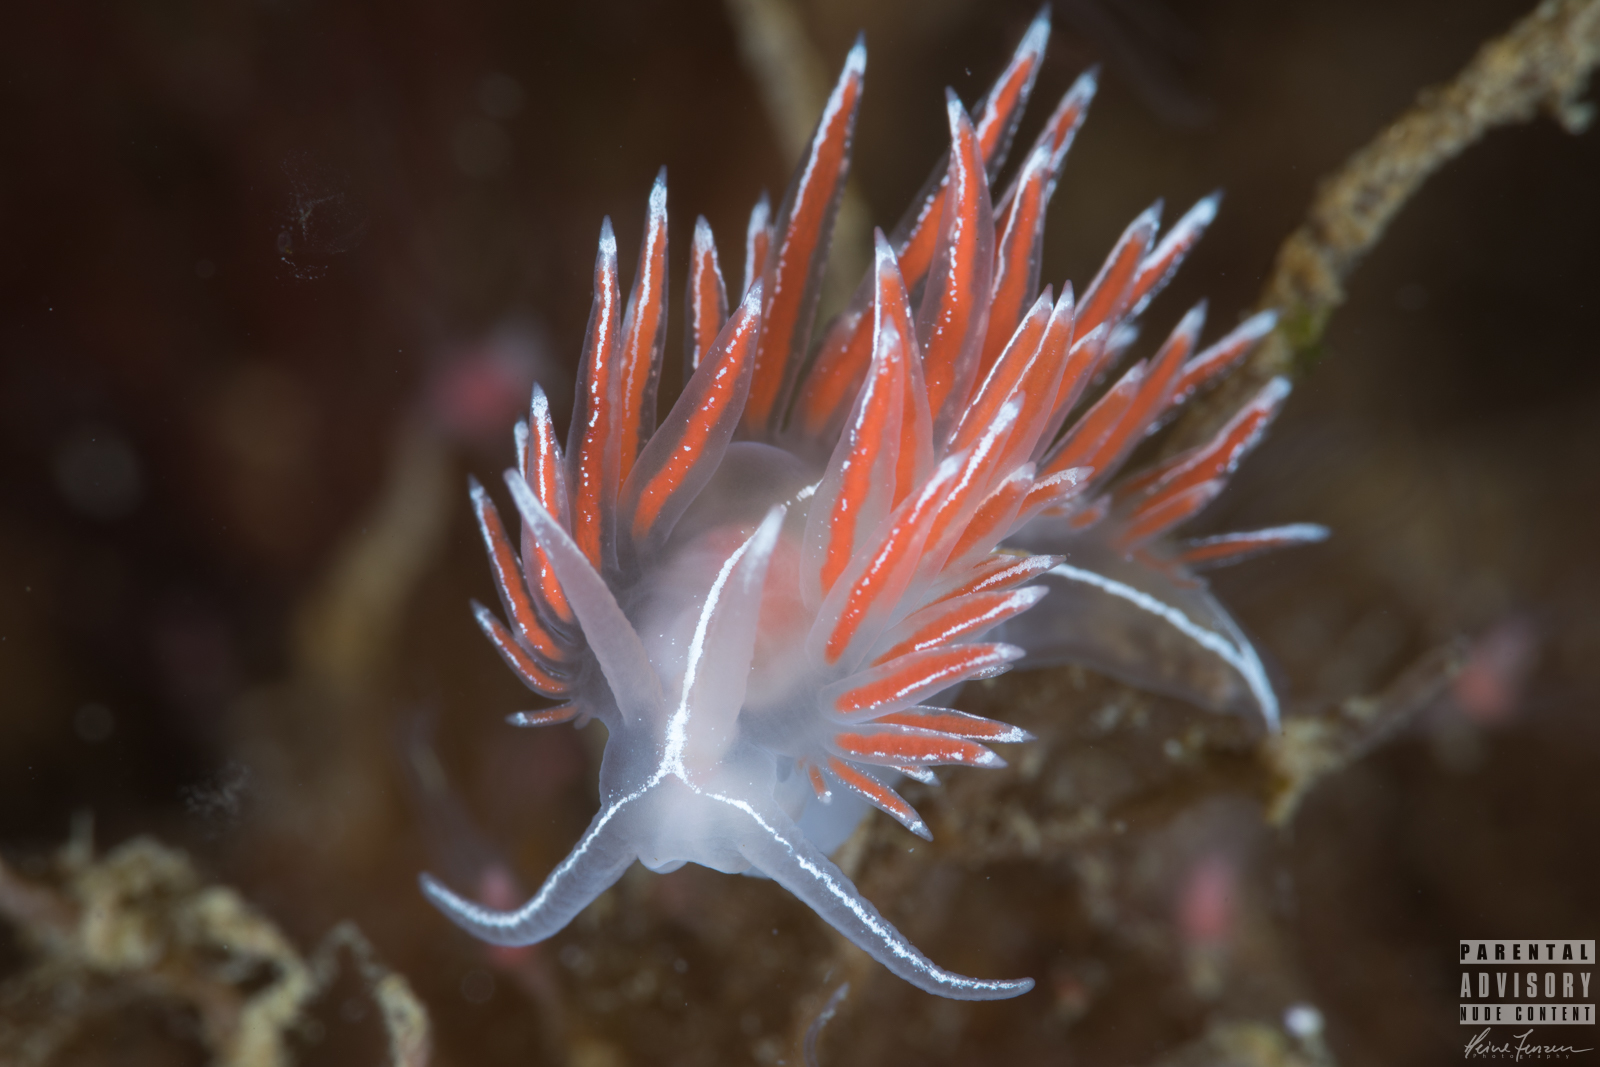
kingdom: Animalia
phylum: Mollusca
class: Gastropoda
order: Nudibranchia
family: Coryphellidae
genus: Coryphella
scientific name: Coryphella lineata
